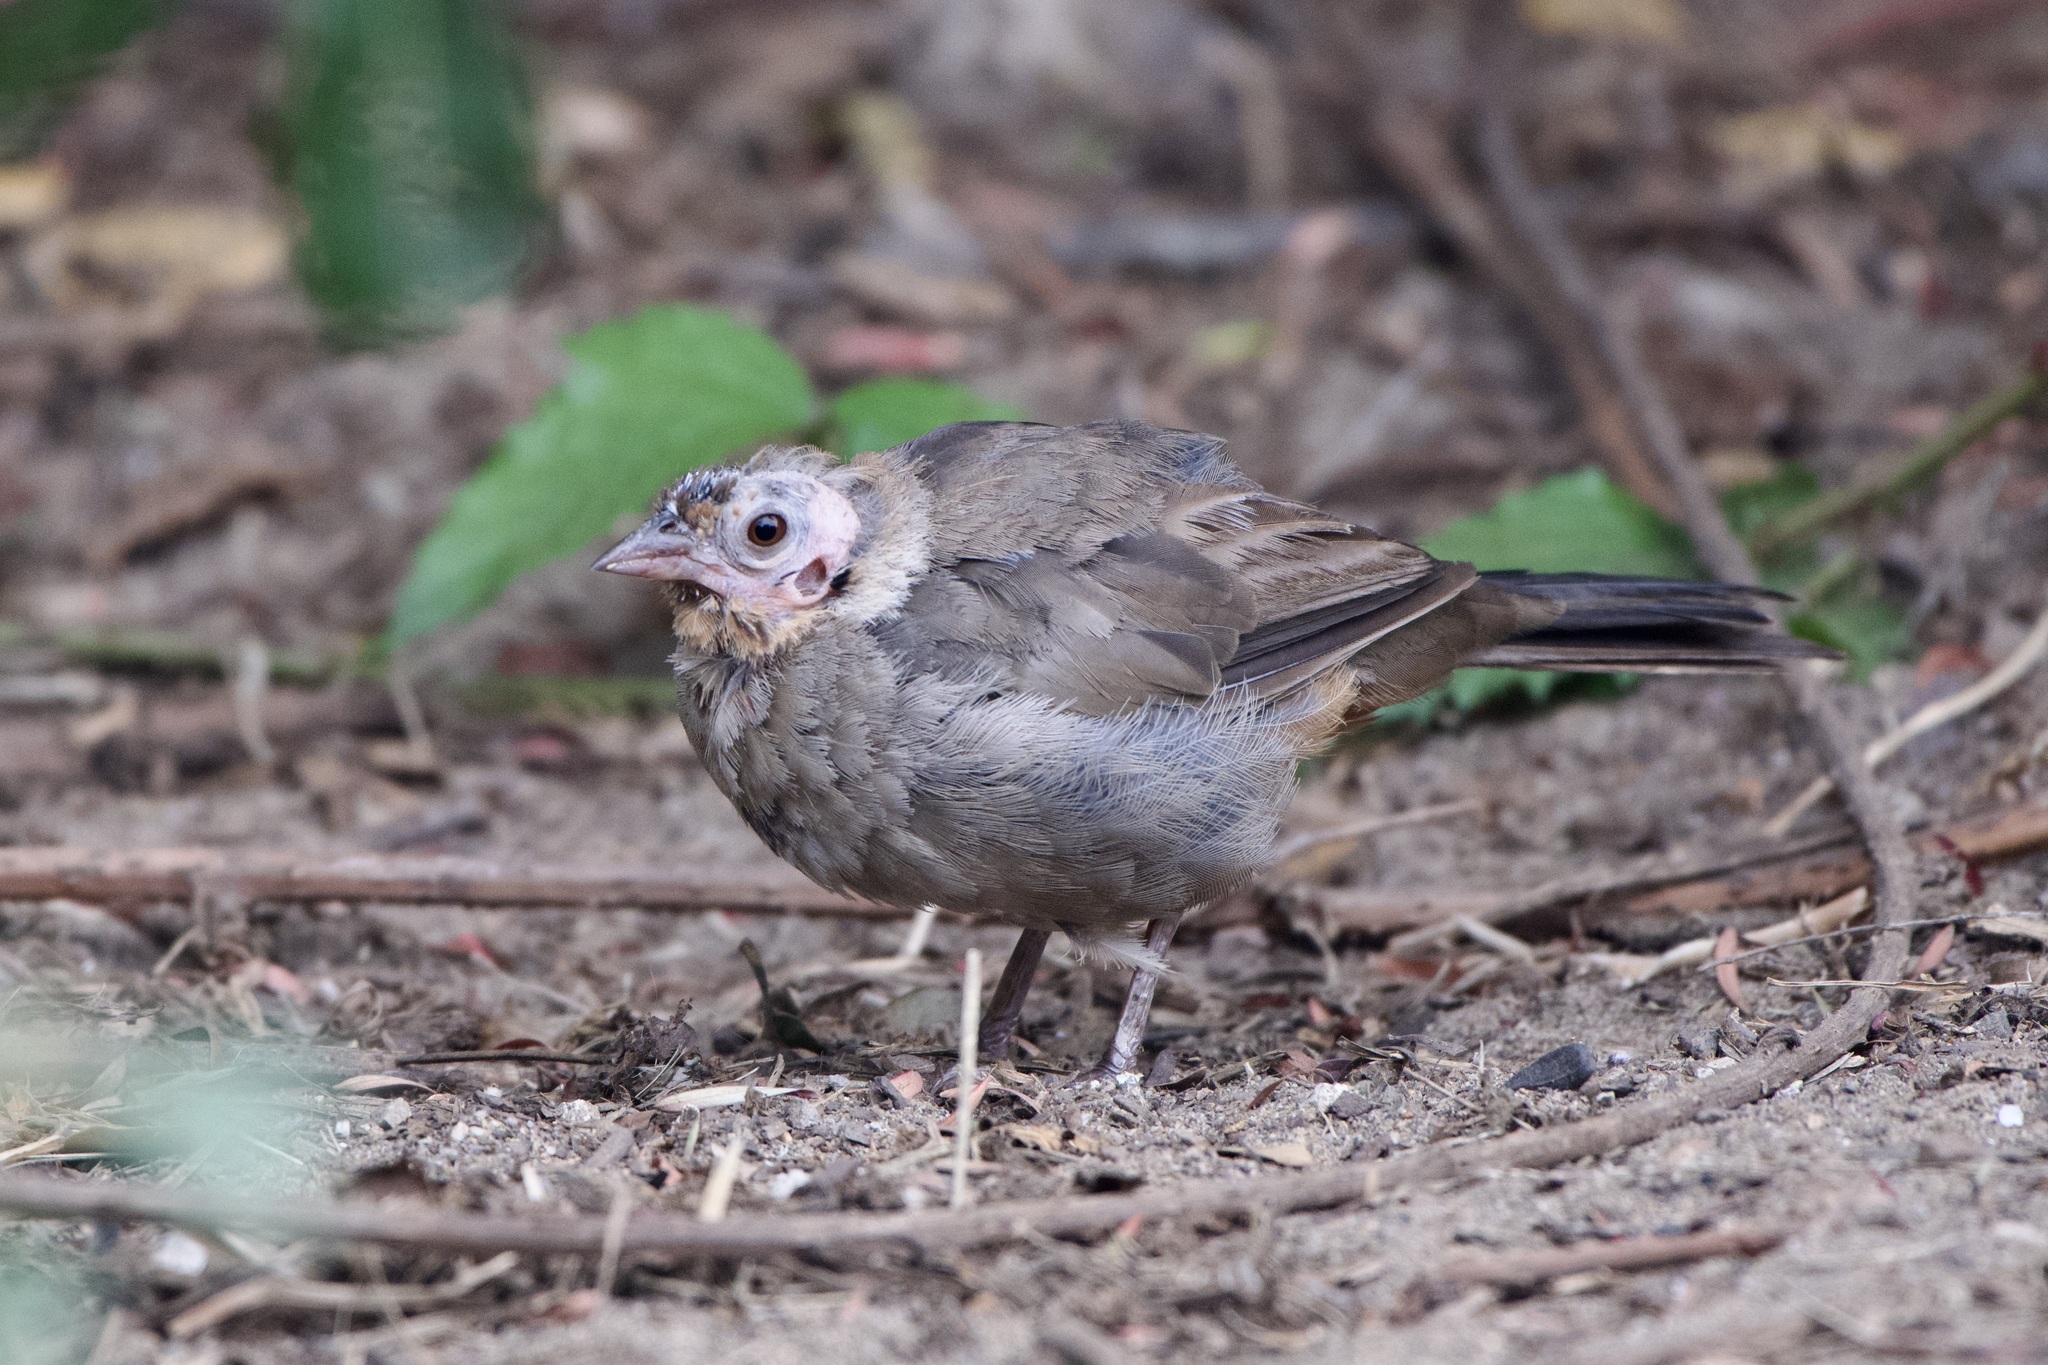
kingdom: Animalia
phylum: Chordata
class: Aves
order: Passeriformes
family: Passerellidae
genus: Melozone
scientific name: Melozone crissalis
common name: California towhee
